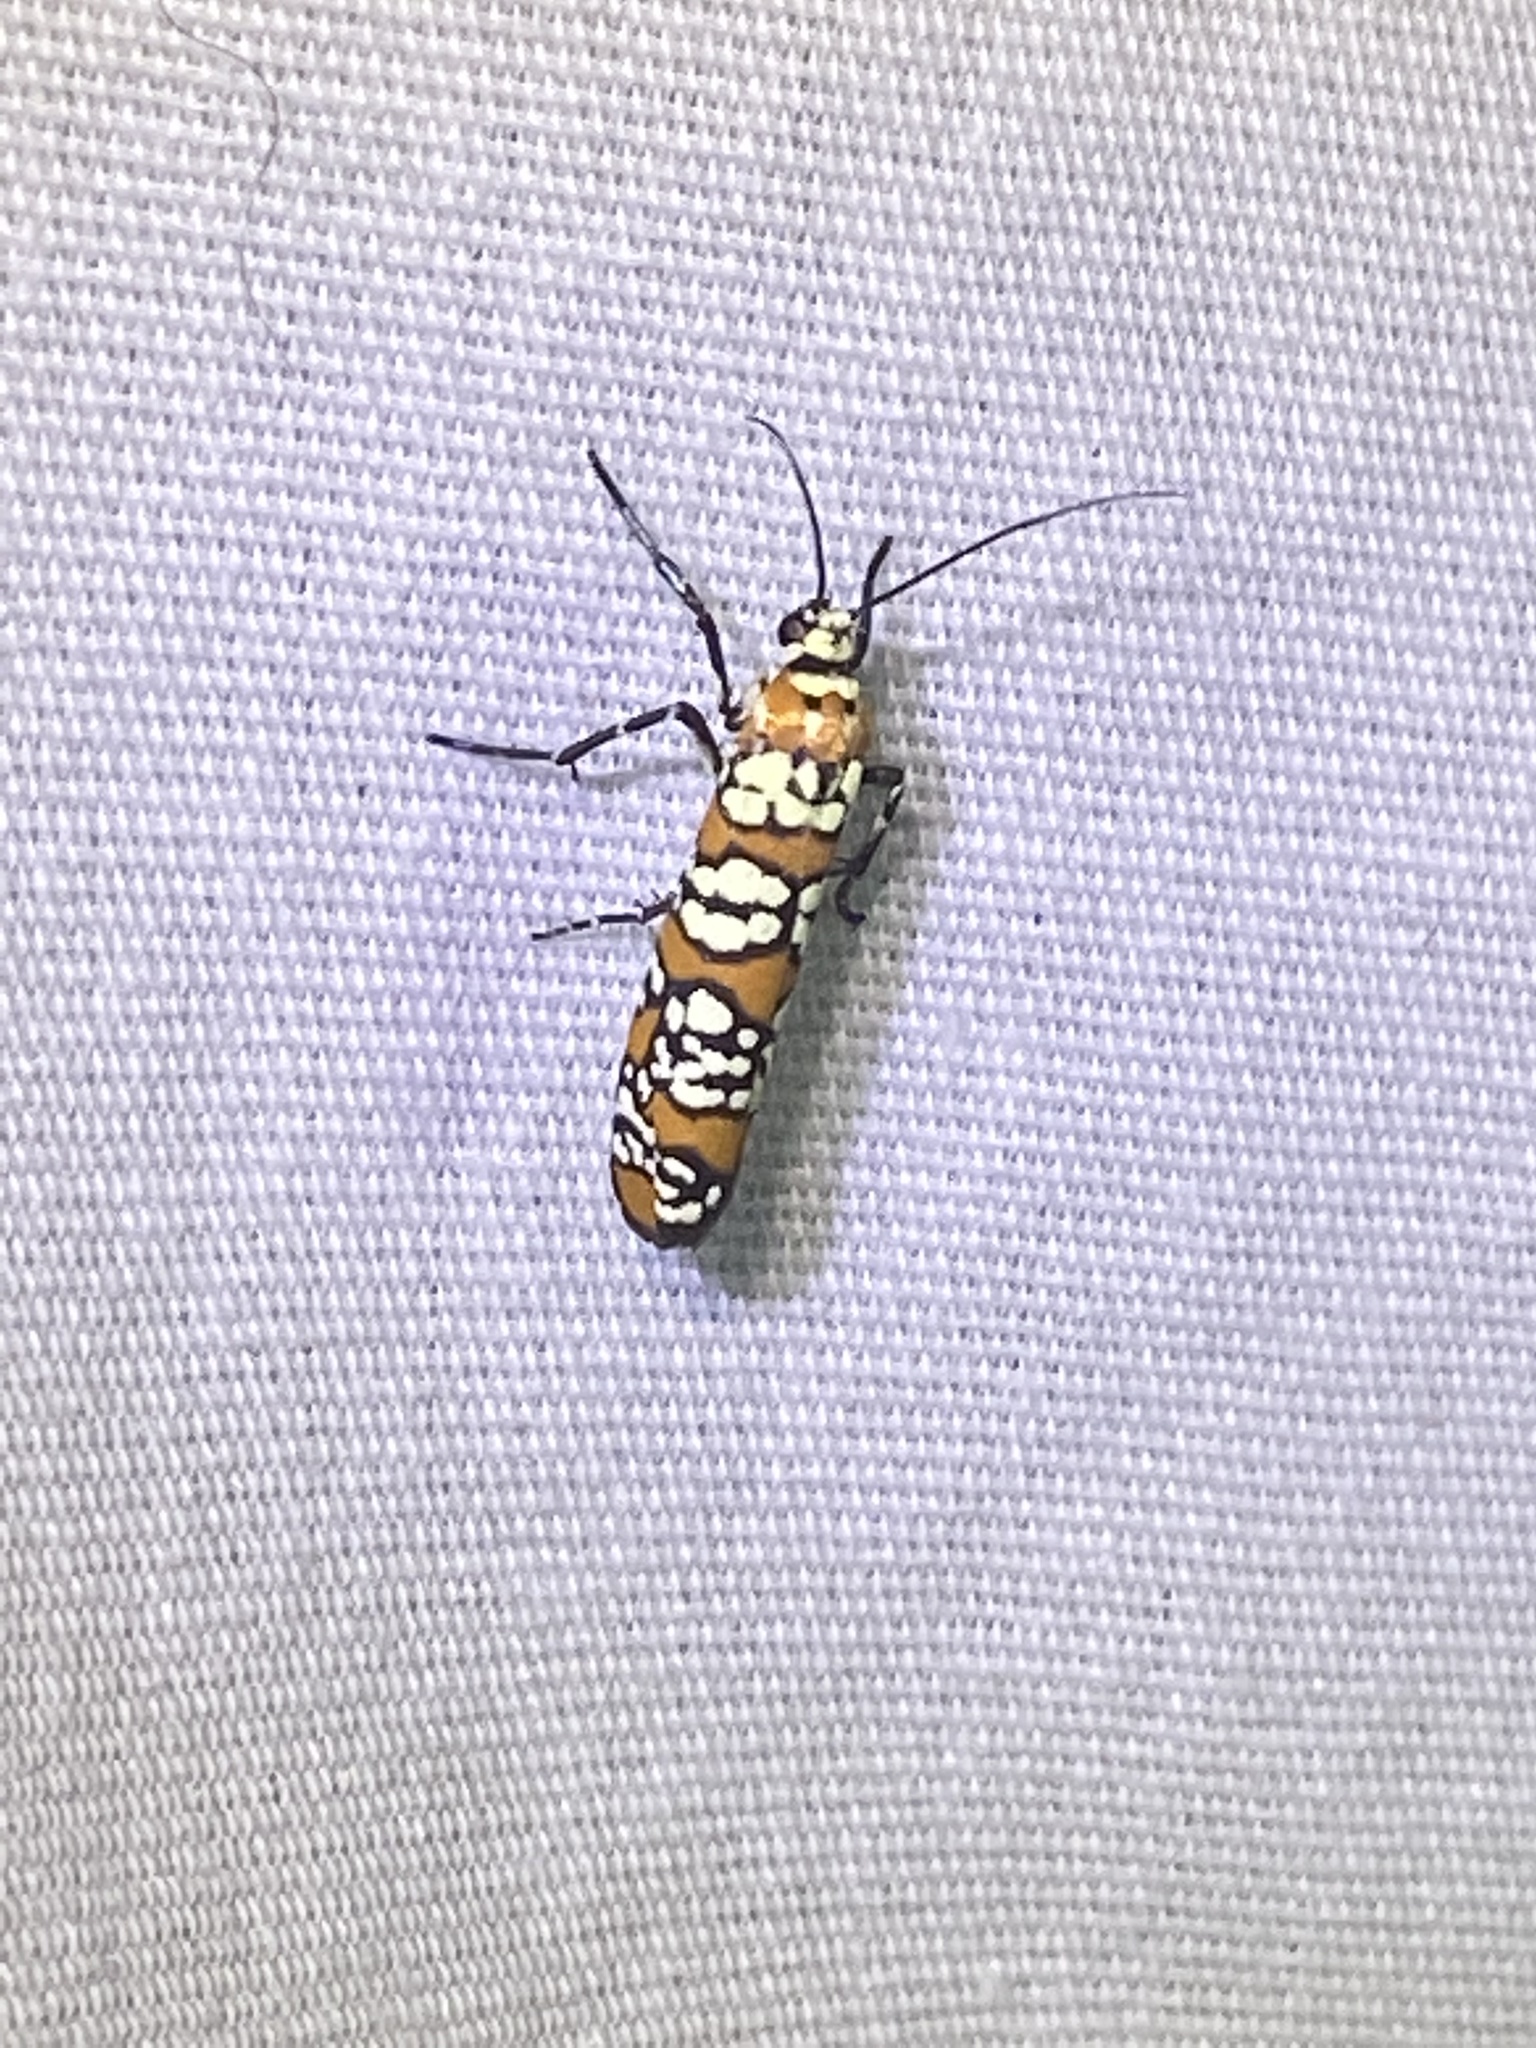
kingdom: Animalia
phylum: Arthropoda
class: Insecta
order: Lepidoptera
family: Attevidae
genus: Atteva
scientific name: Atteva punctella
